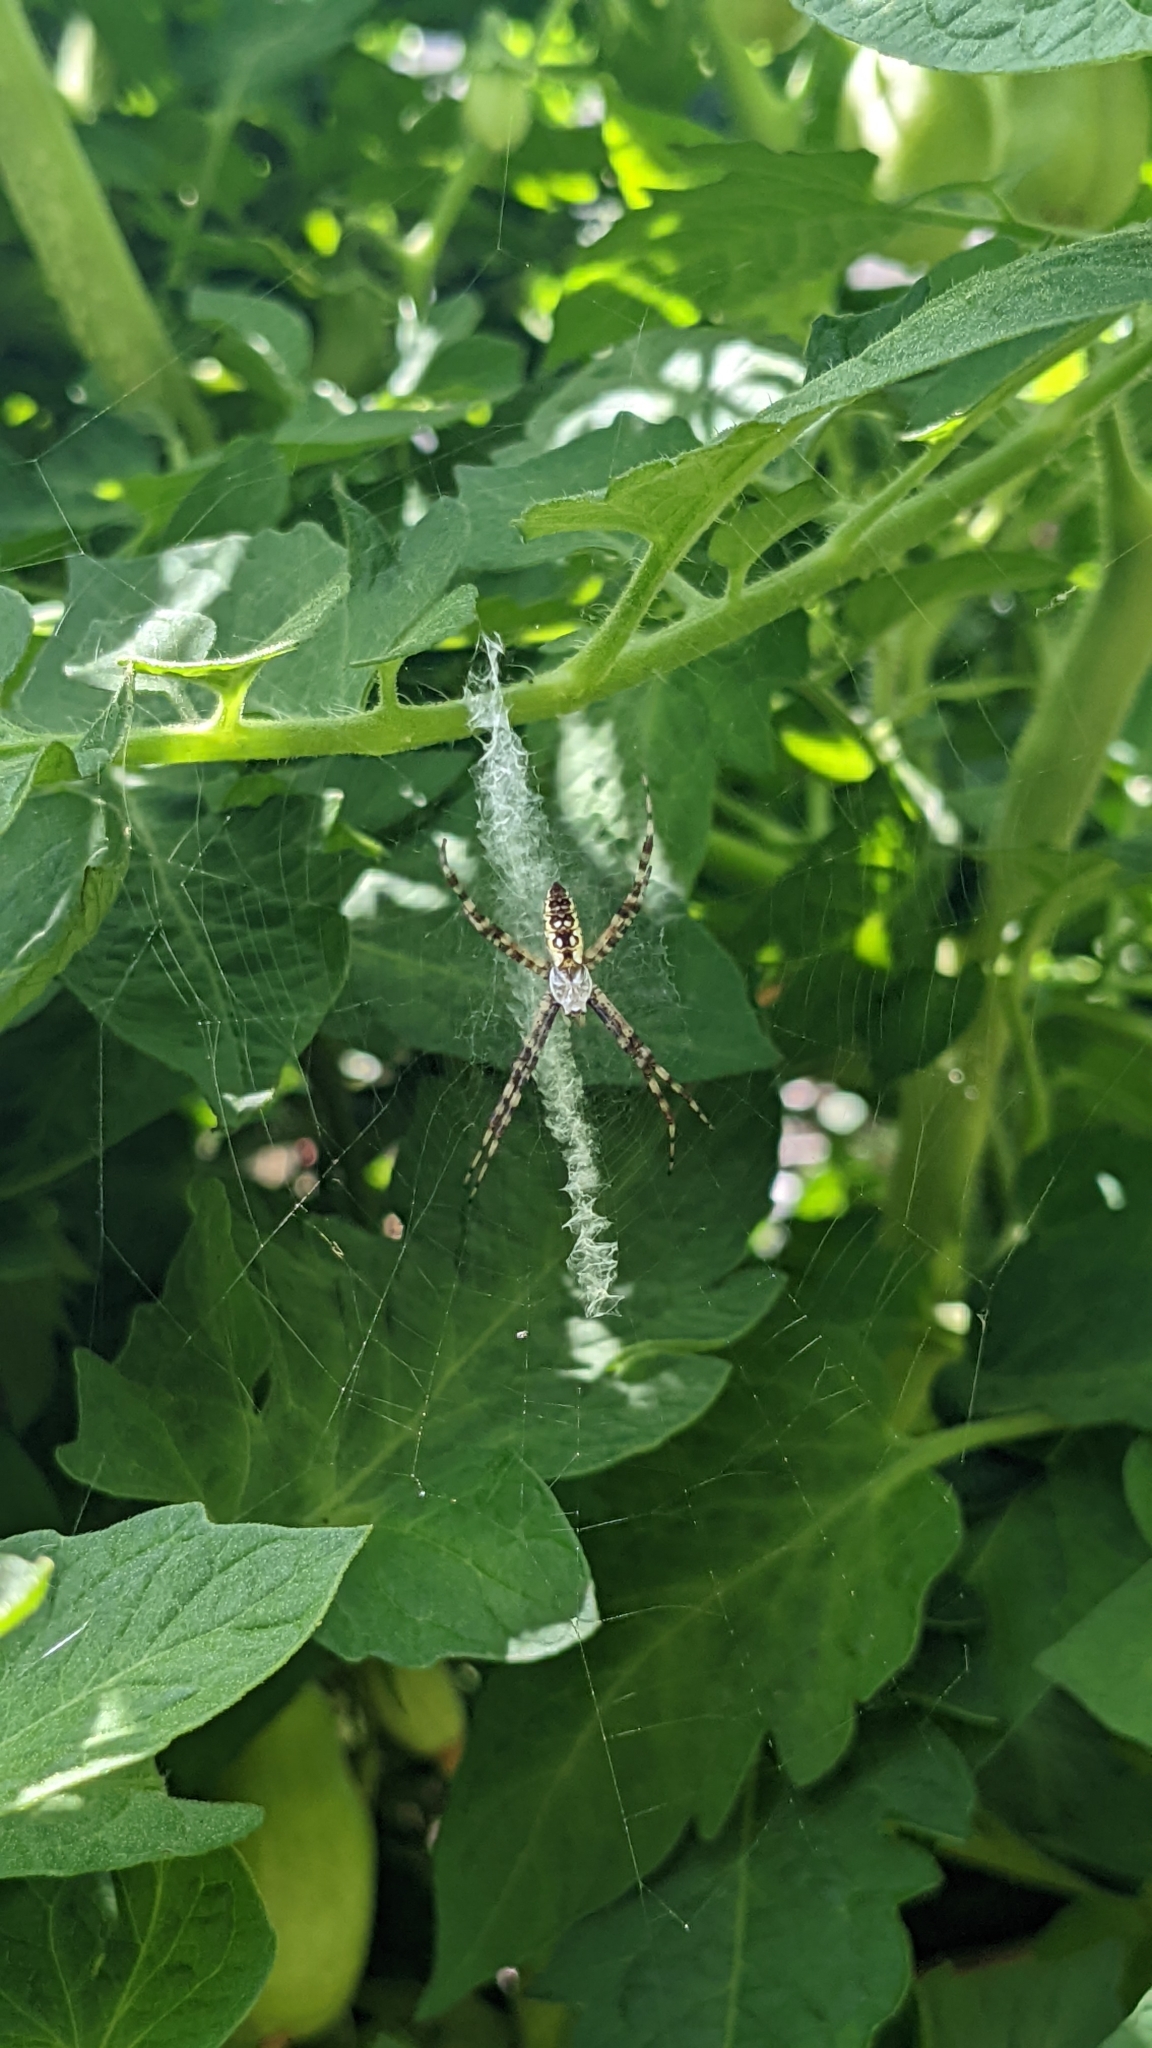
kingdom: Animalia
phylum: Arthropoda
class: Arachnida
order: Araneae
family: Araneidae
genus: Argiope
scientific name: Argiope aurantia
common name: Orb weavers
